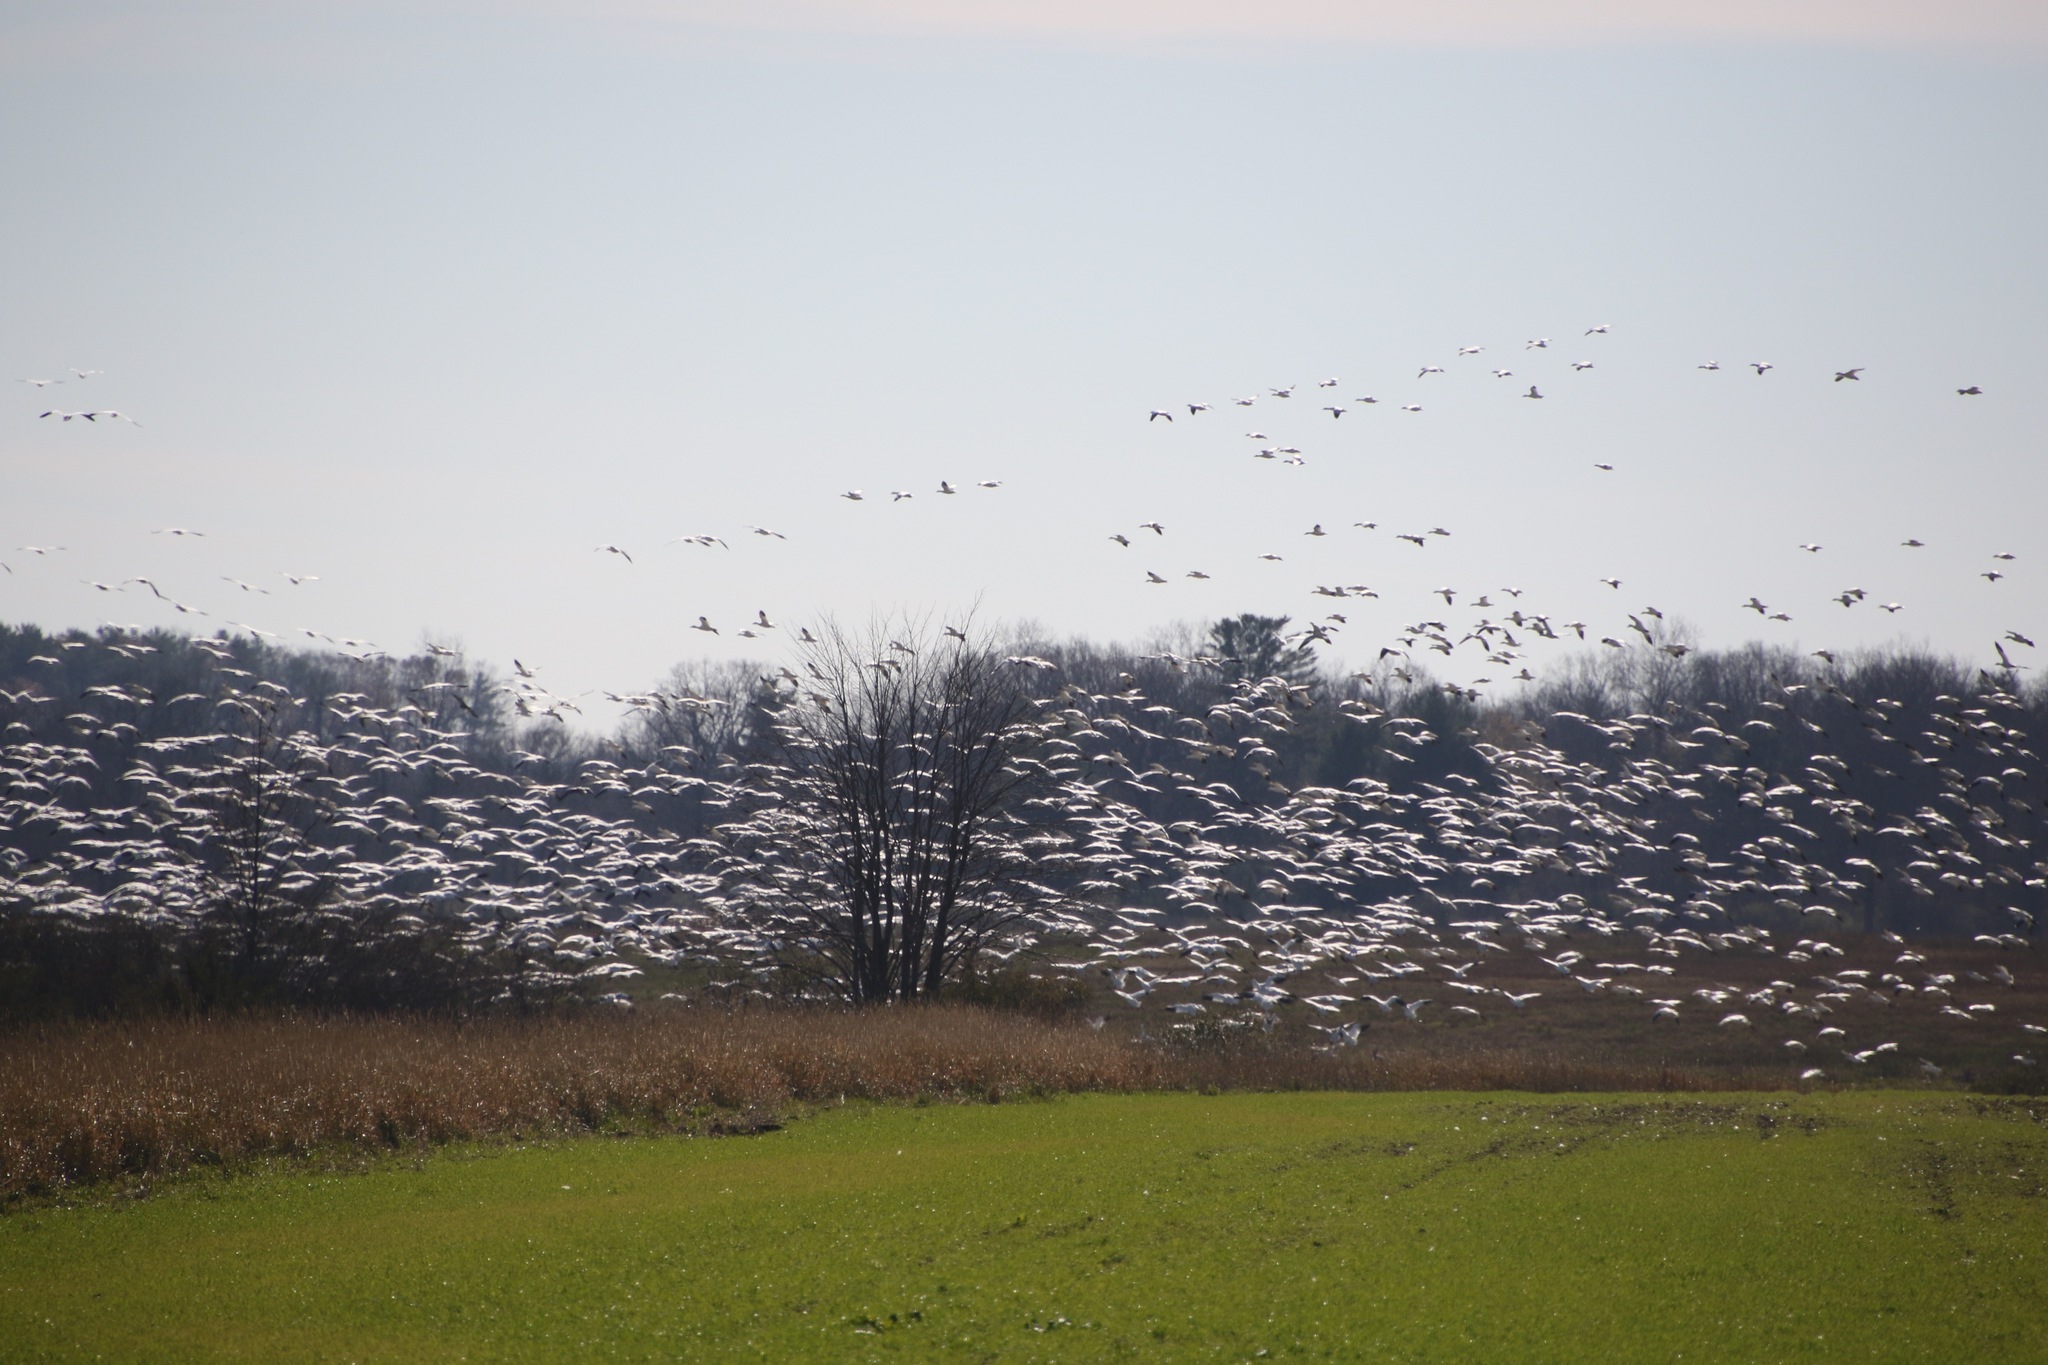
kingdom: Animalia
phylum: Chordata
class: Aves
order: Anseriformes
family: Anatidae
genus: Anser
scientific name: Anser caerulescens
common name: Snow goose
